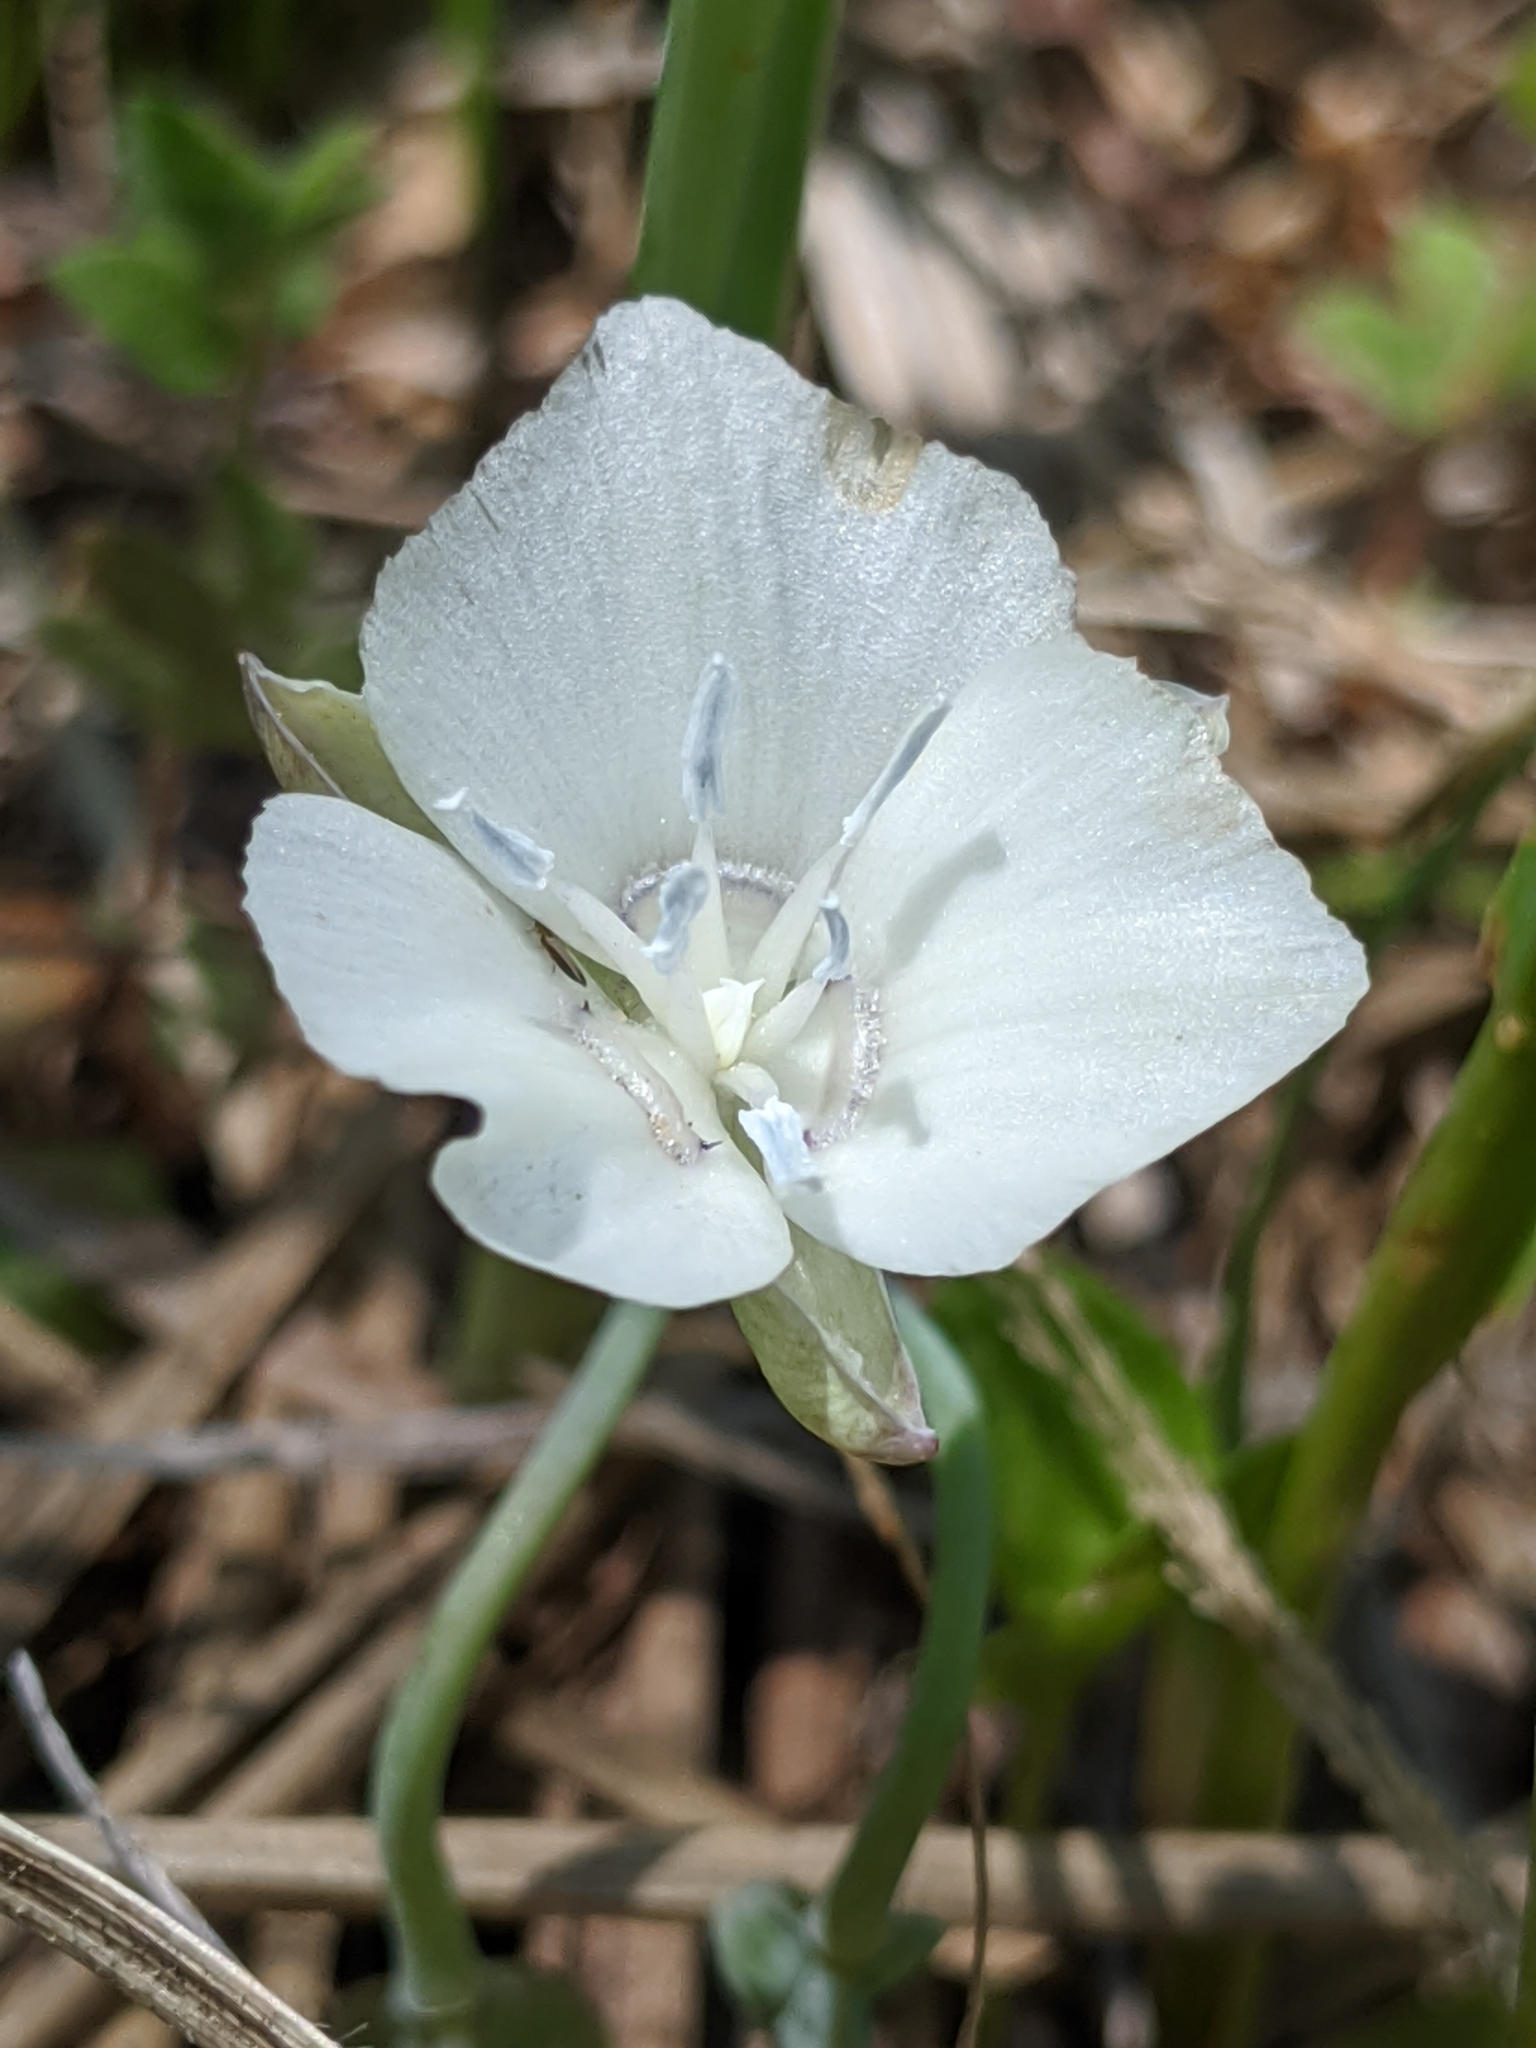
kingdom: Plantae
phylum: Tracheophyta
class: Liliopsida
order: Liliales
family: Liliaceae
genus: Calochortus
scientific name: Calochortus minimus
